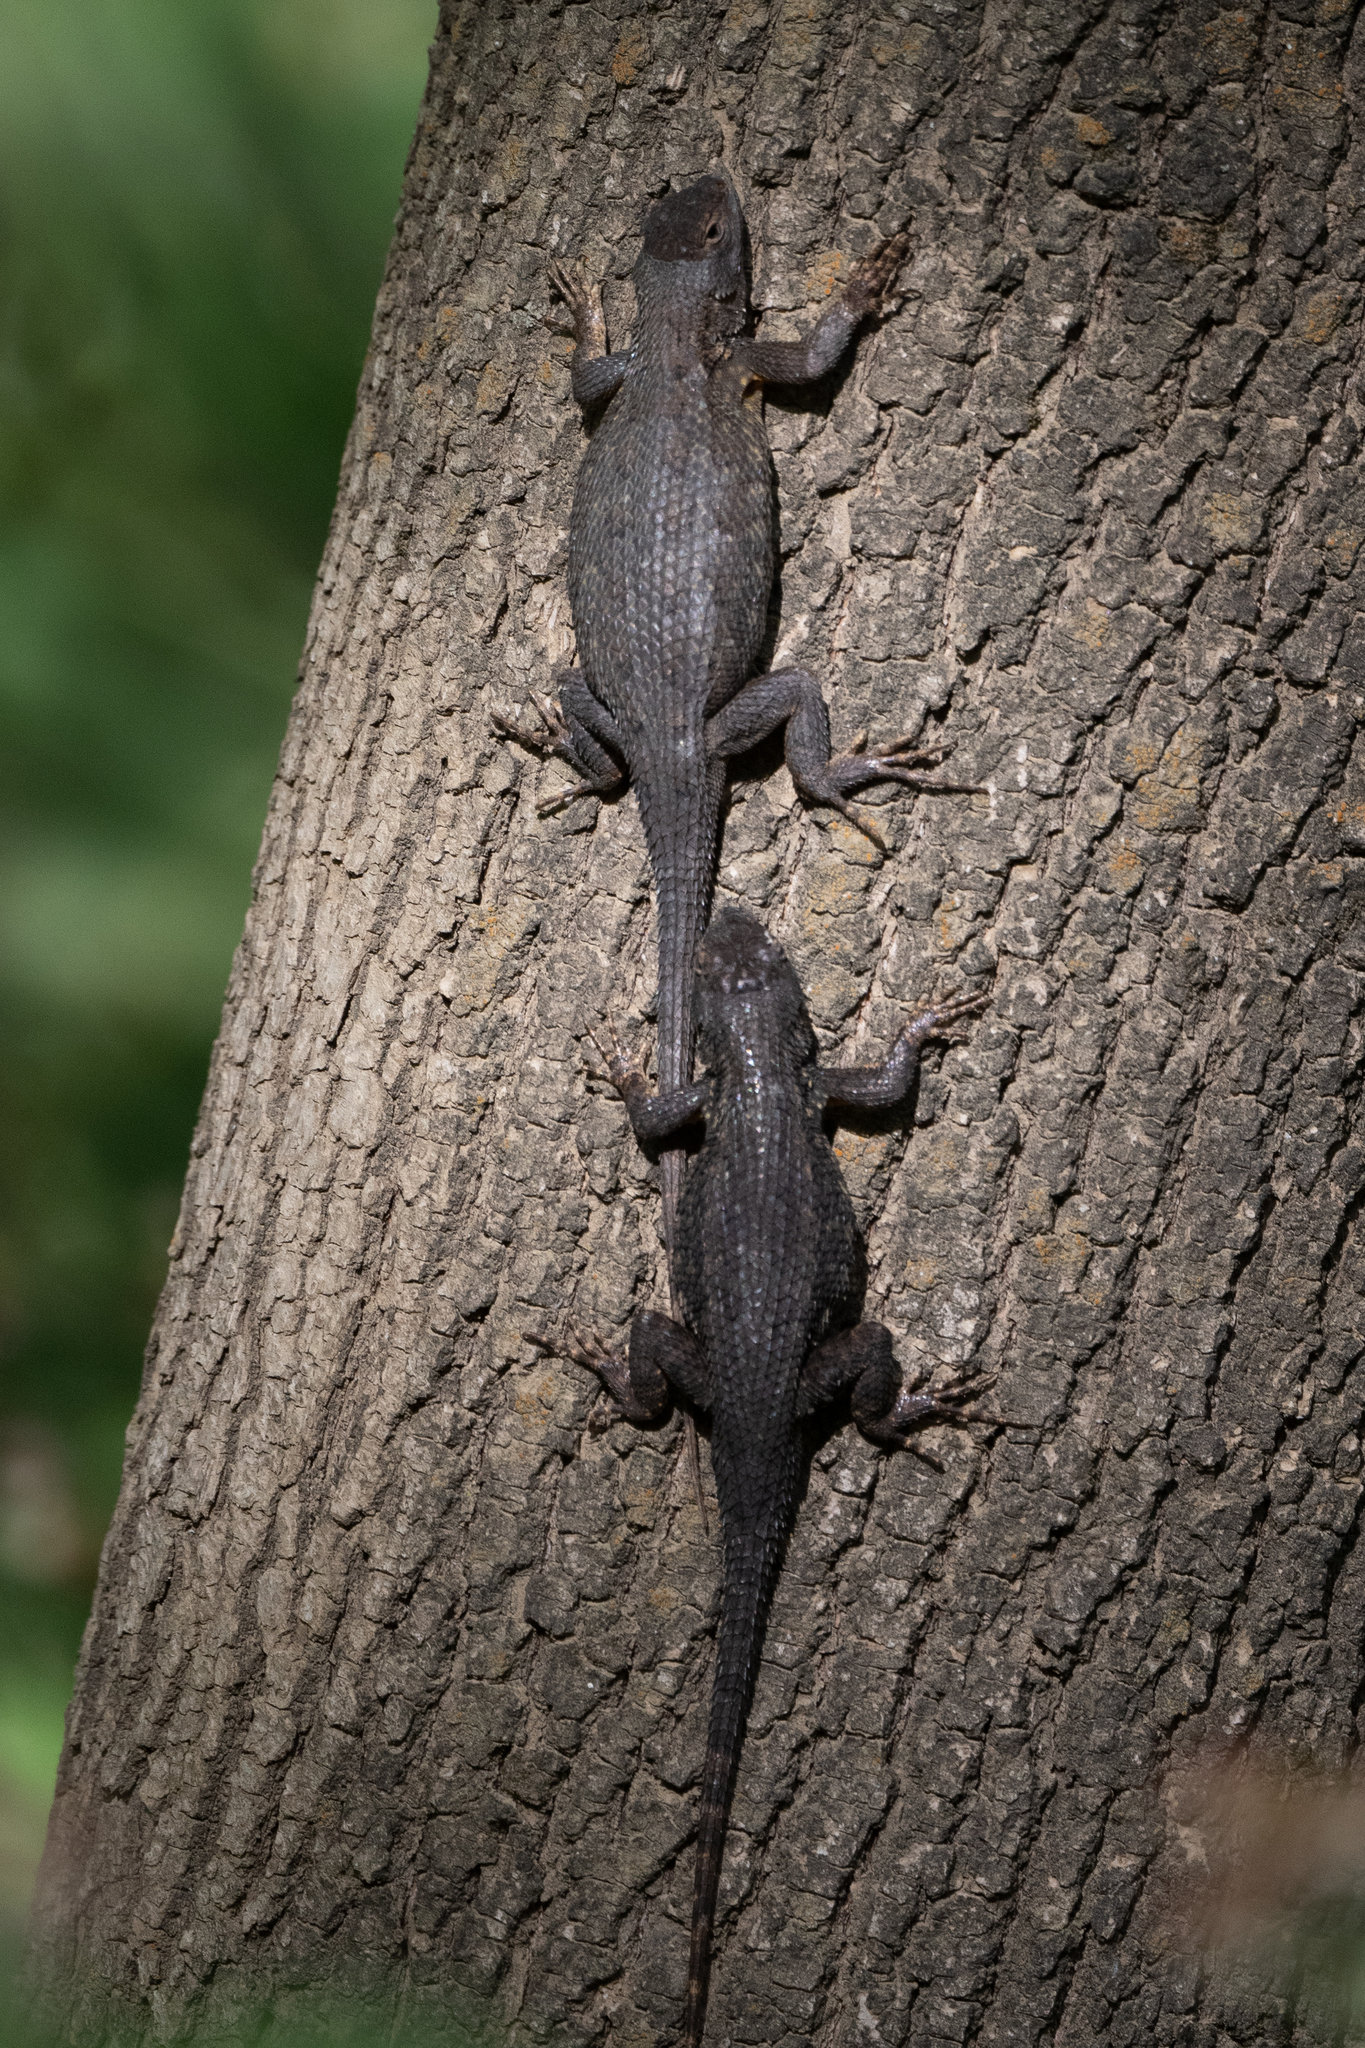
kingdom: Animalia
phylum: Chordata
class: Squamata
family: Phrynosomatidae
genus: Sceloporus
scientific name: Sceloporus occidentalis
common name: Western fence lizard
